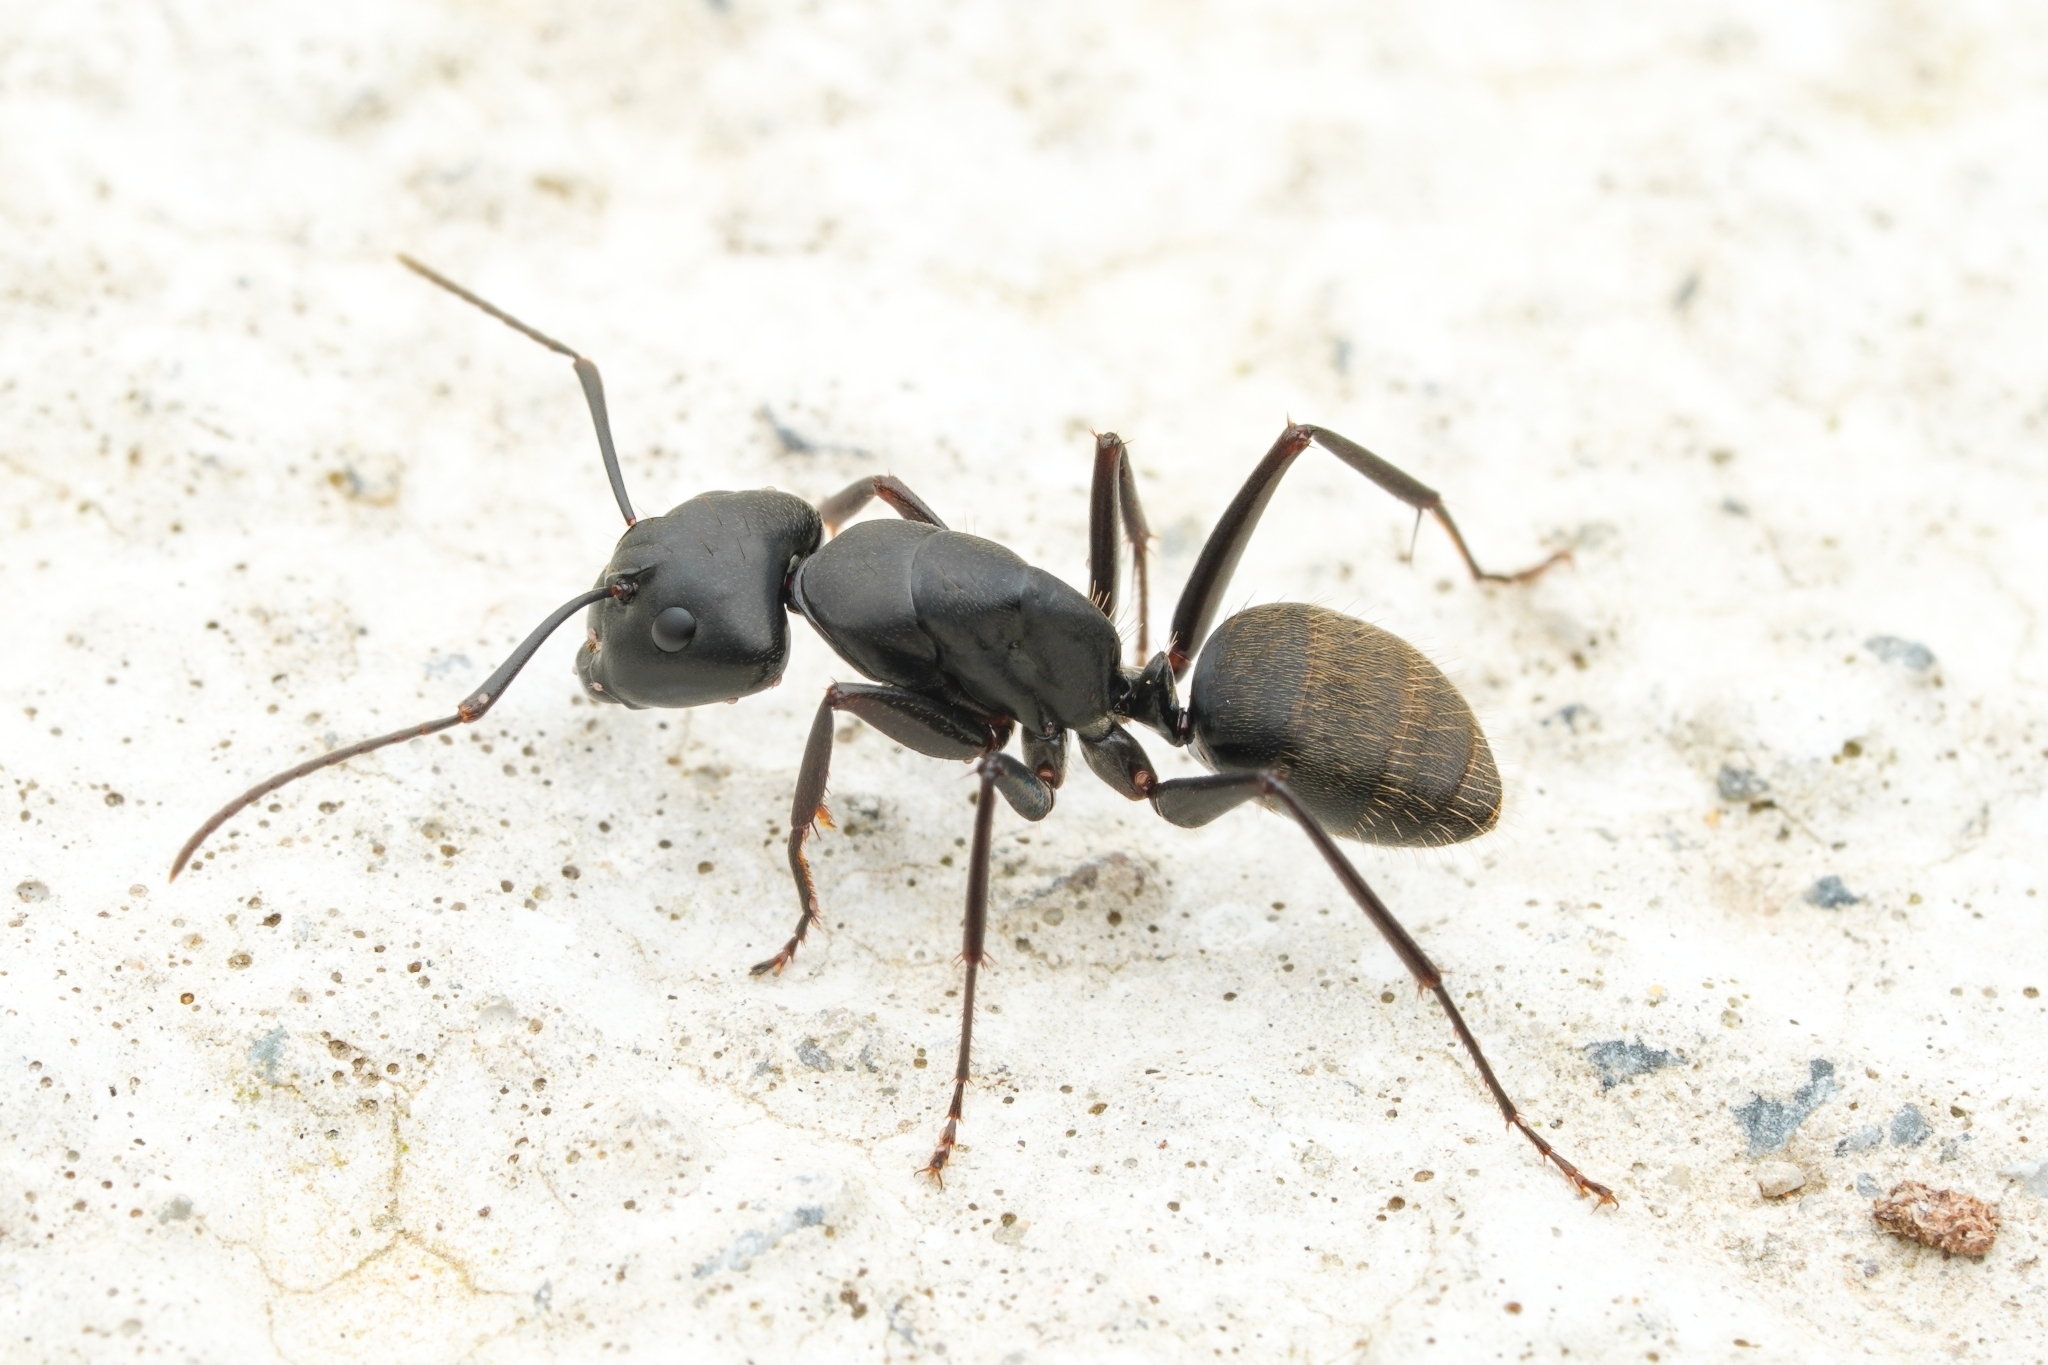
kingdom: Animalia
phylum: Arthropoda
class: Insecta
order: Hymenoptera
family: Formicidae
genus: Camponotus
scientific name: Camponotus japonicus
